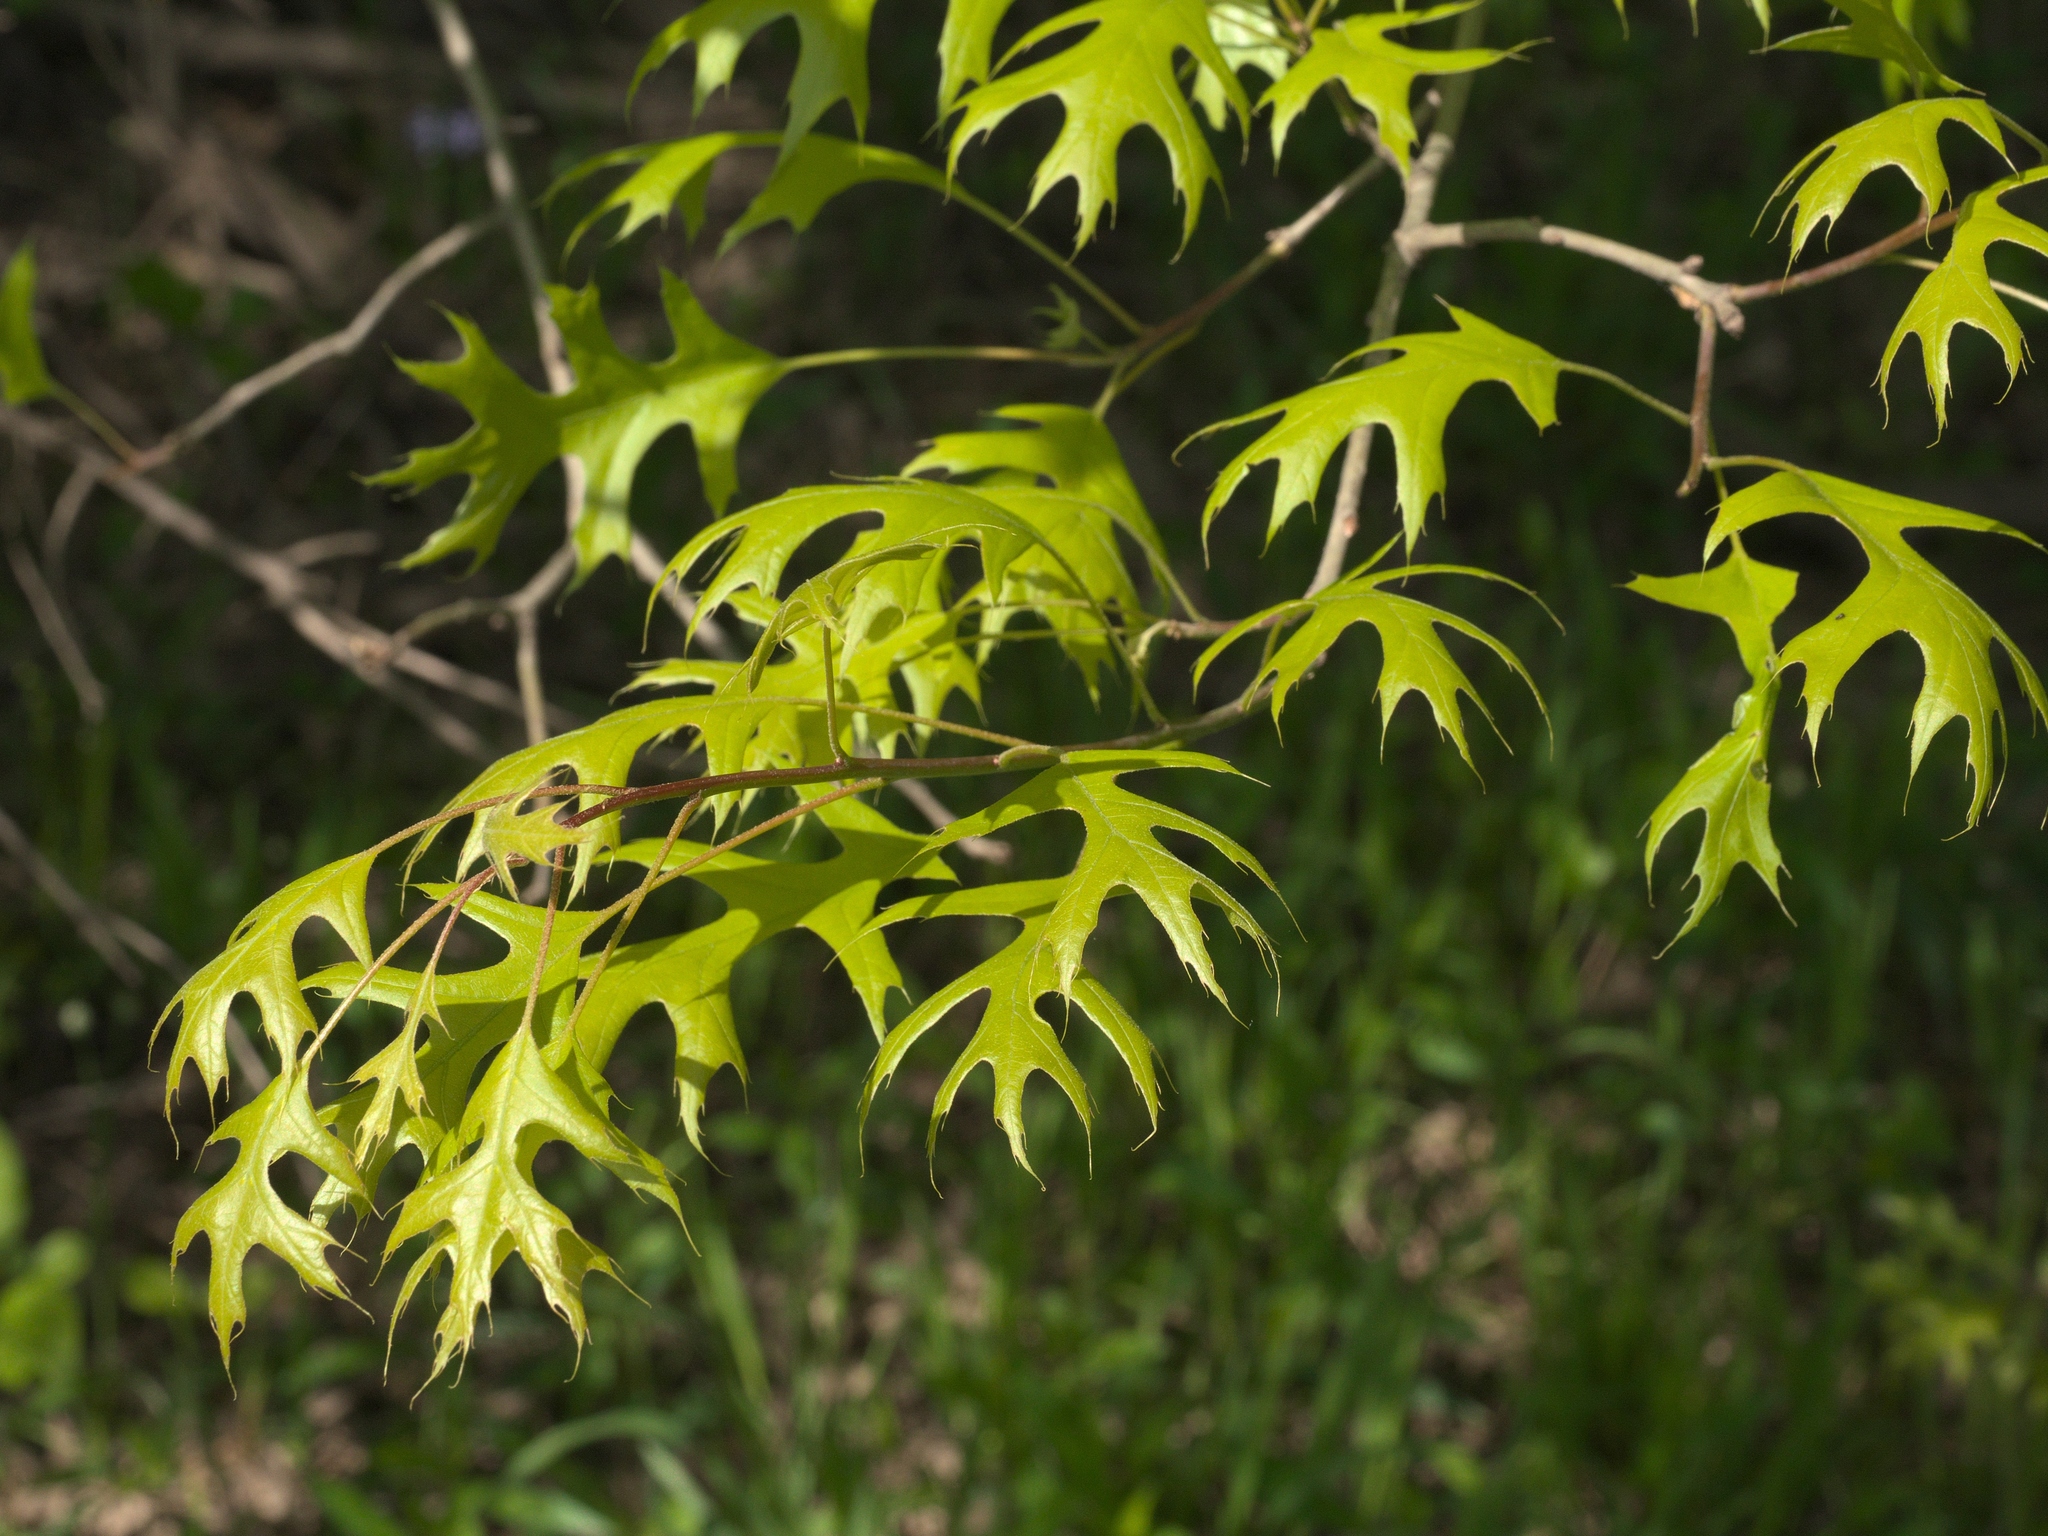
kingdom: Plantae
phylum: Tracheophyta
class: Magnoliopsida
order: Fagales
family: Fagaceae
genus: Quercus
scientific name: Quercus palustris
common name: Pin oak
